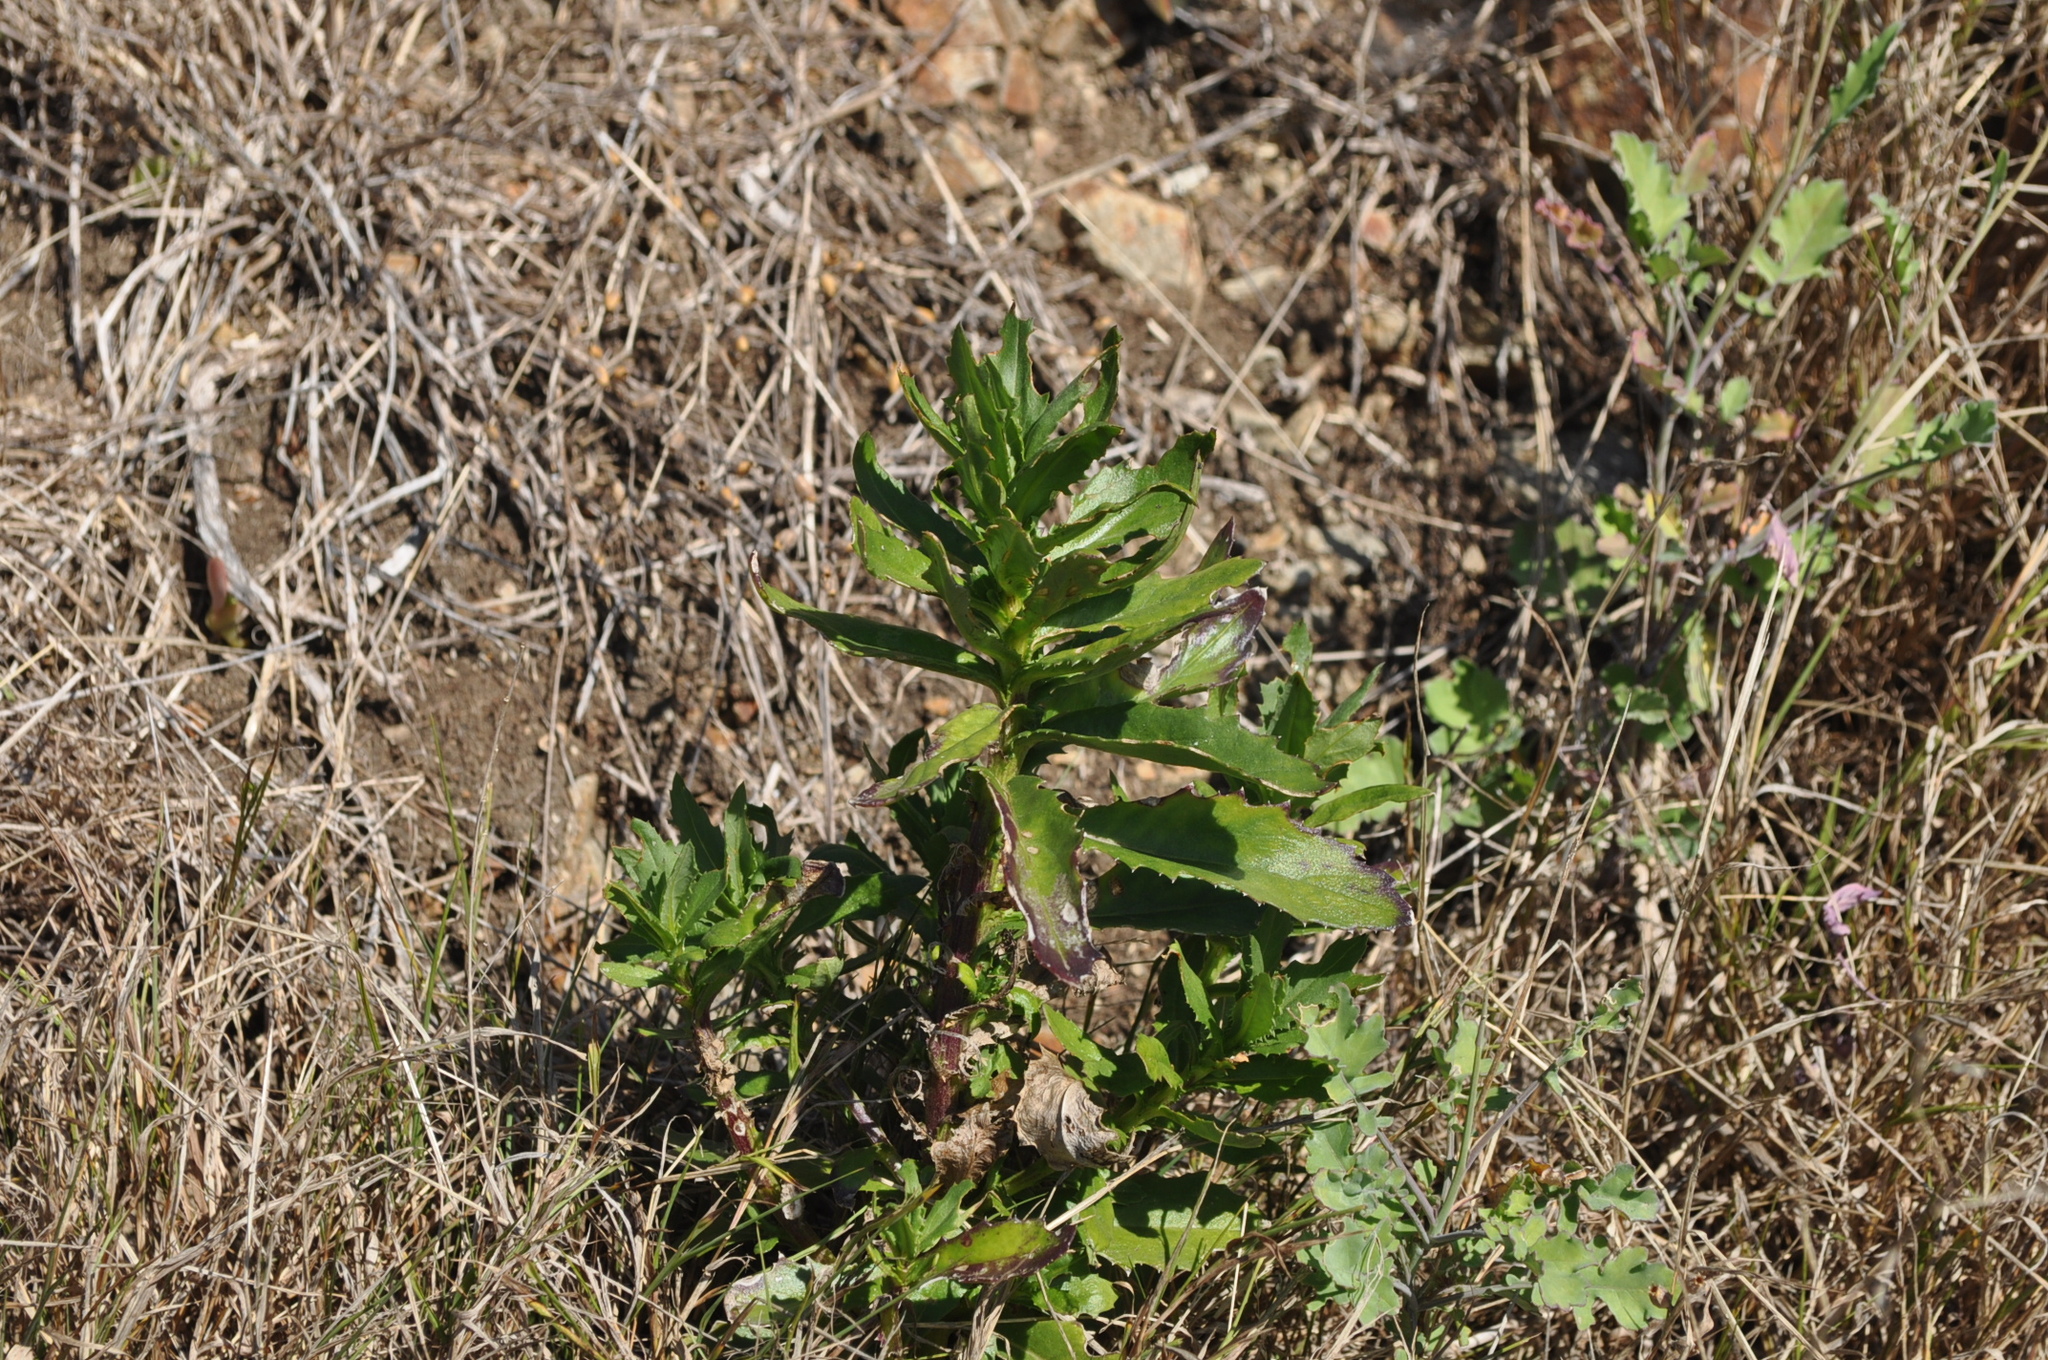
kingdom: Plantae
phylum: Tracheophyta
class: Magnoliopsida
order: Asterales
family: Asteraceae
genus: Senecio
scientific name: Senecio glastifolius
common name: Woad-leaved ragwort
